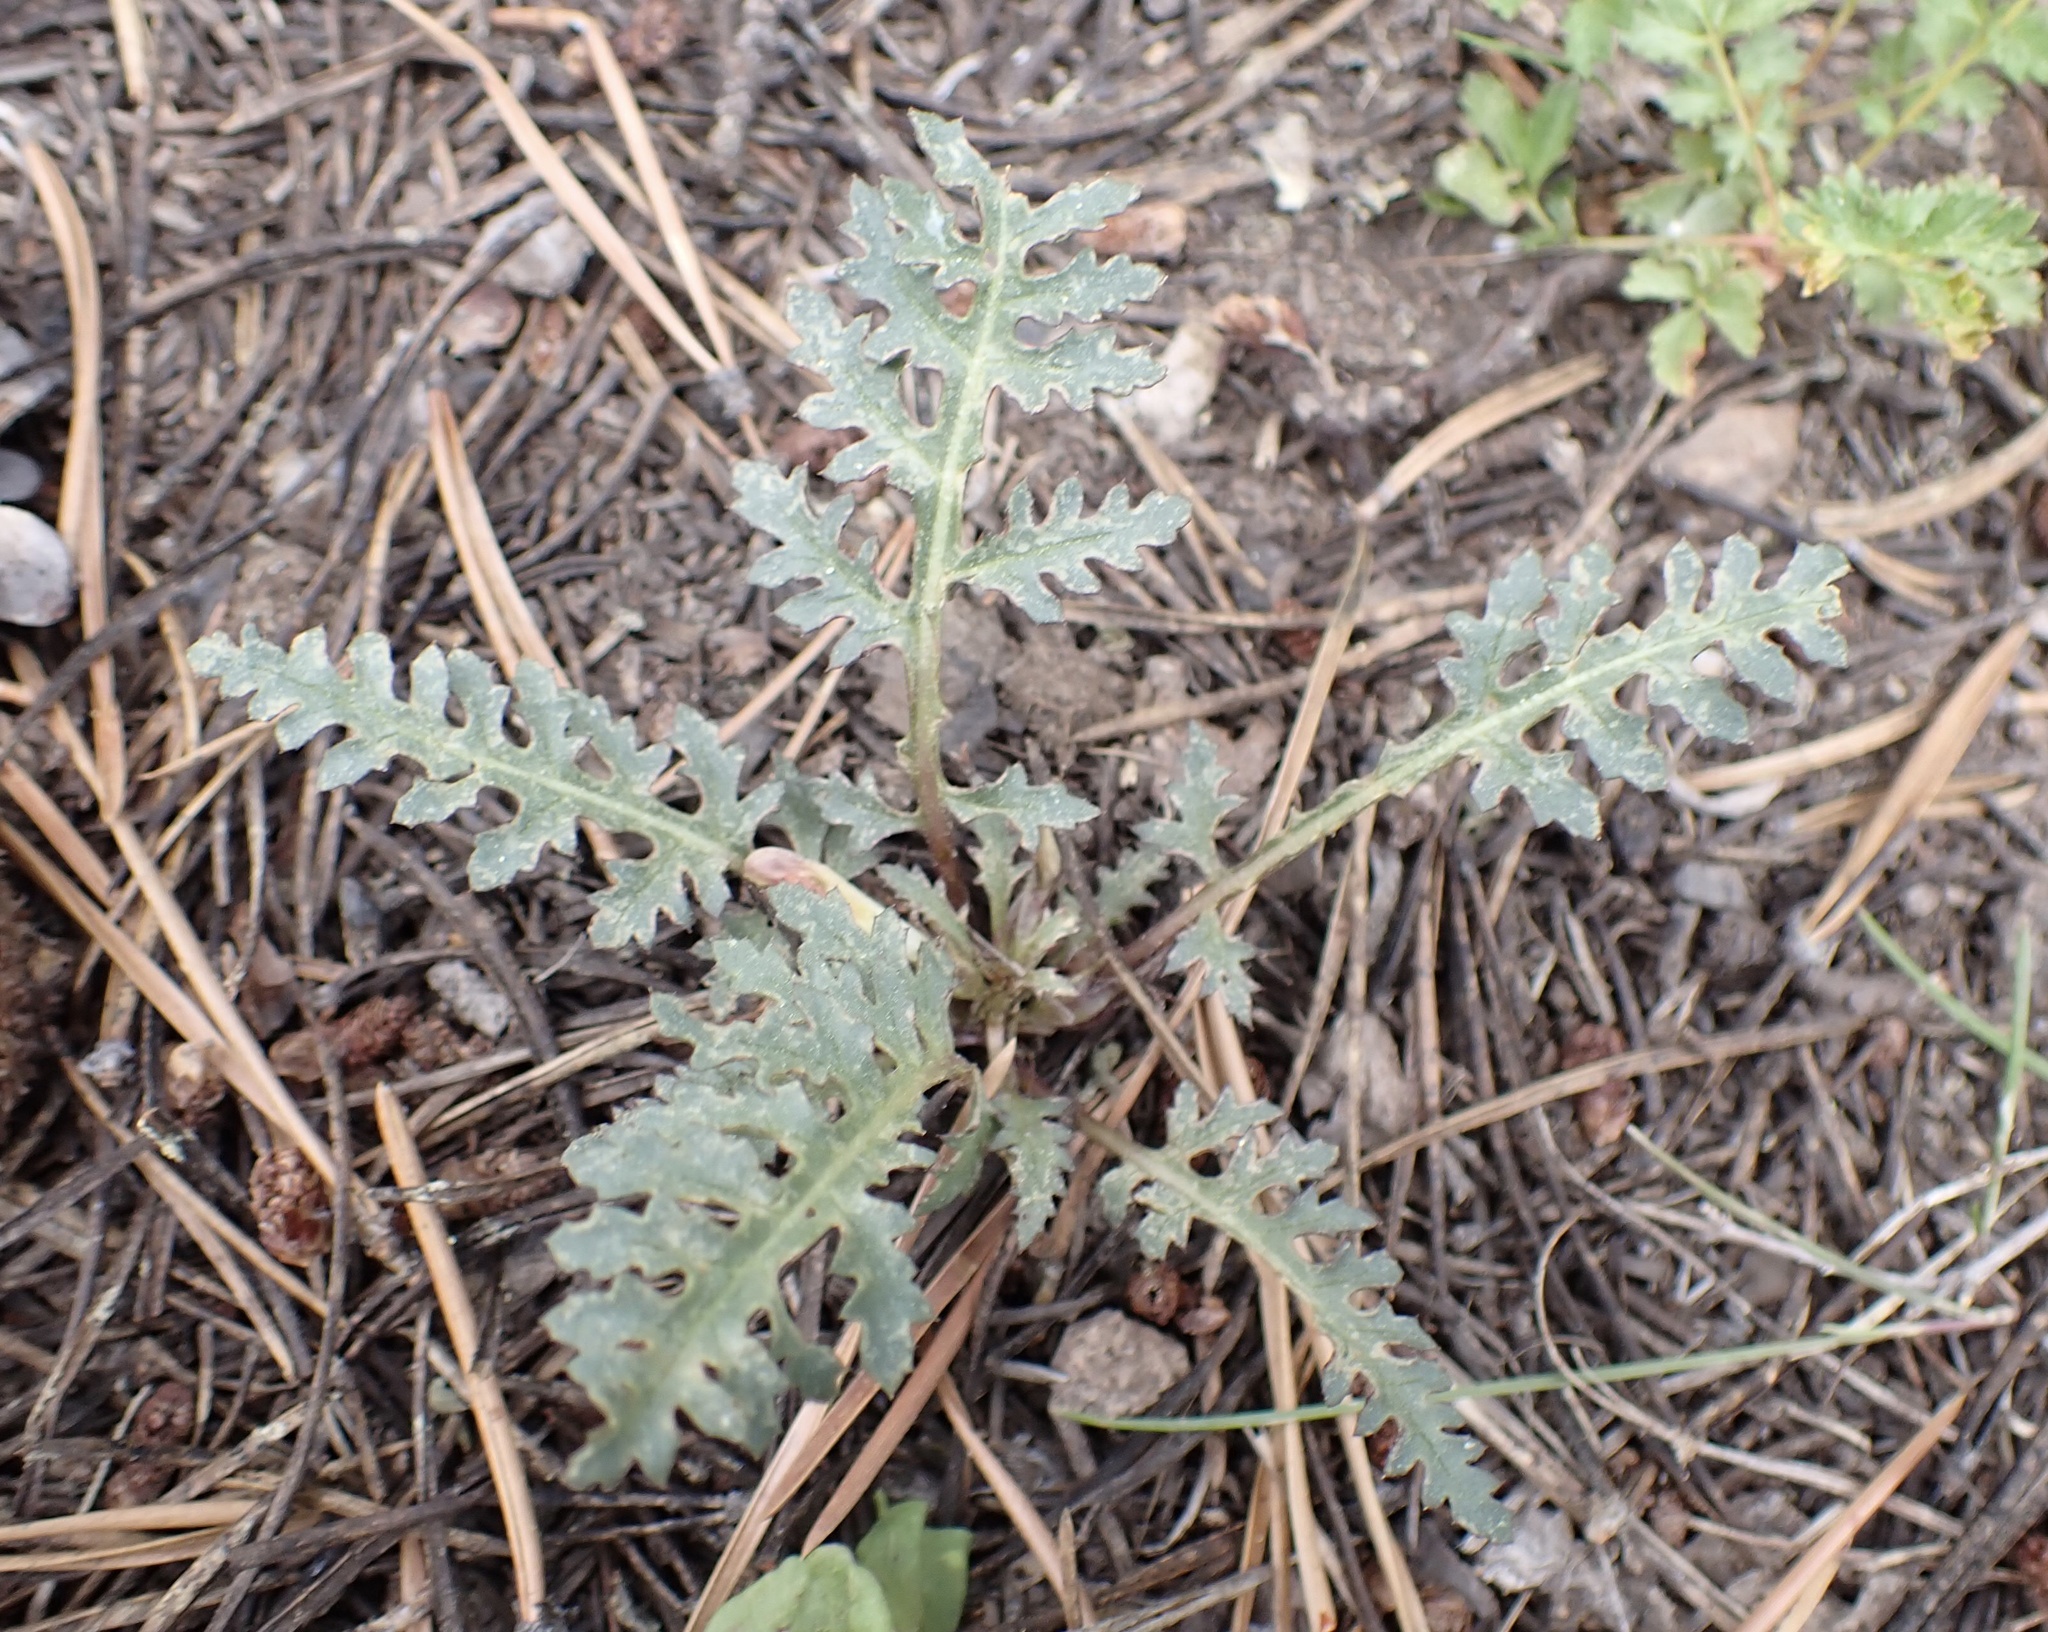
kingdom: Plantae
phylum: Tracheophyta
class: Magnoliopsida
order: Lamiales
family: Orobanchaceae
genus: Pedicularis
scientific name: Pedicularis semibarbata
